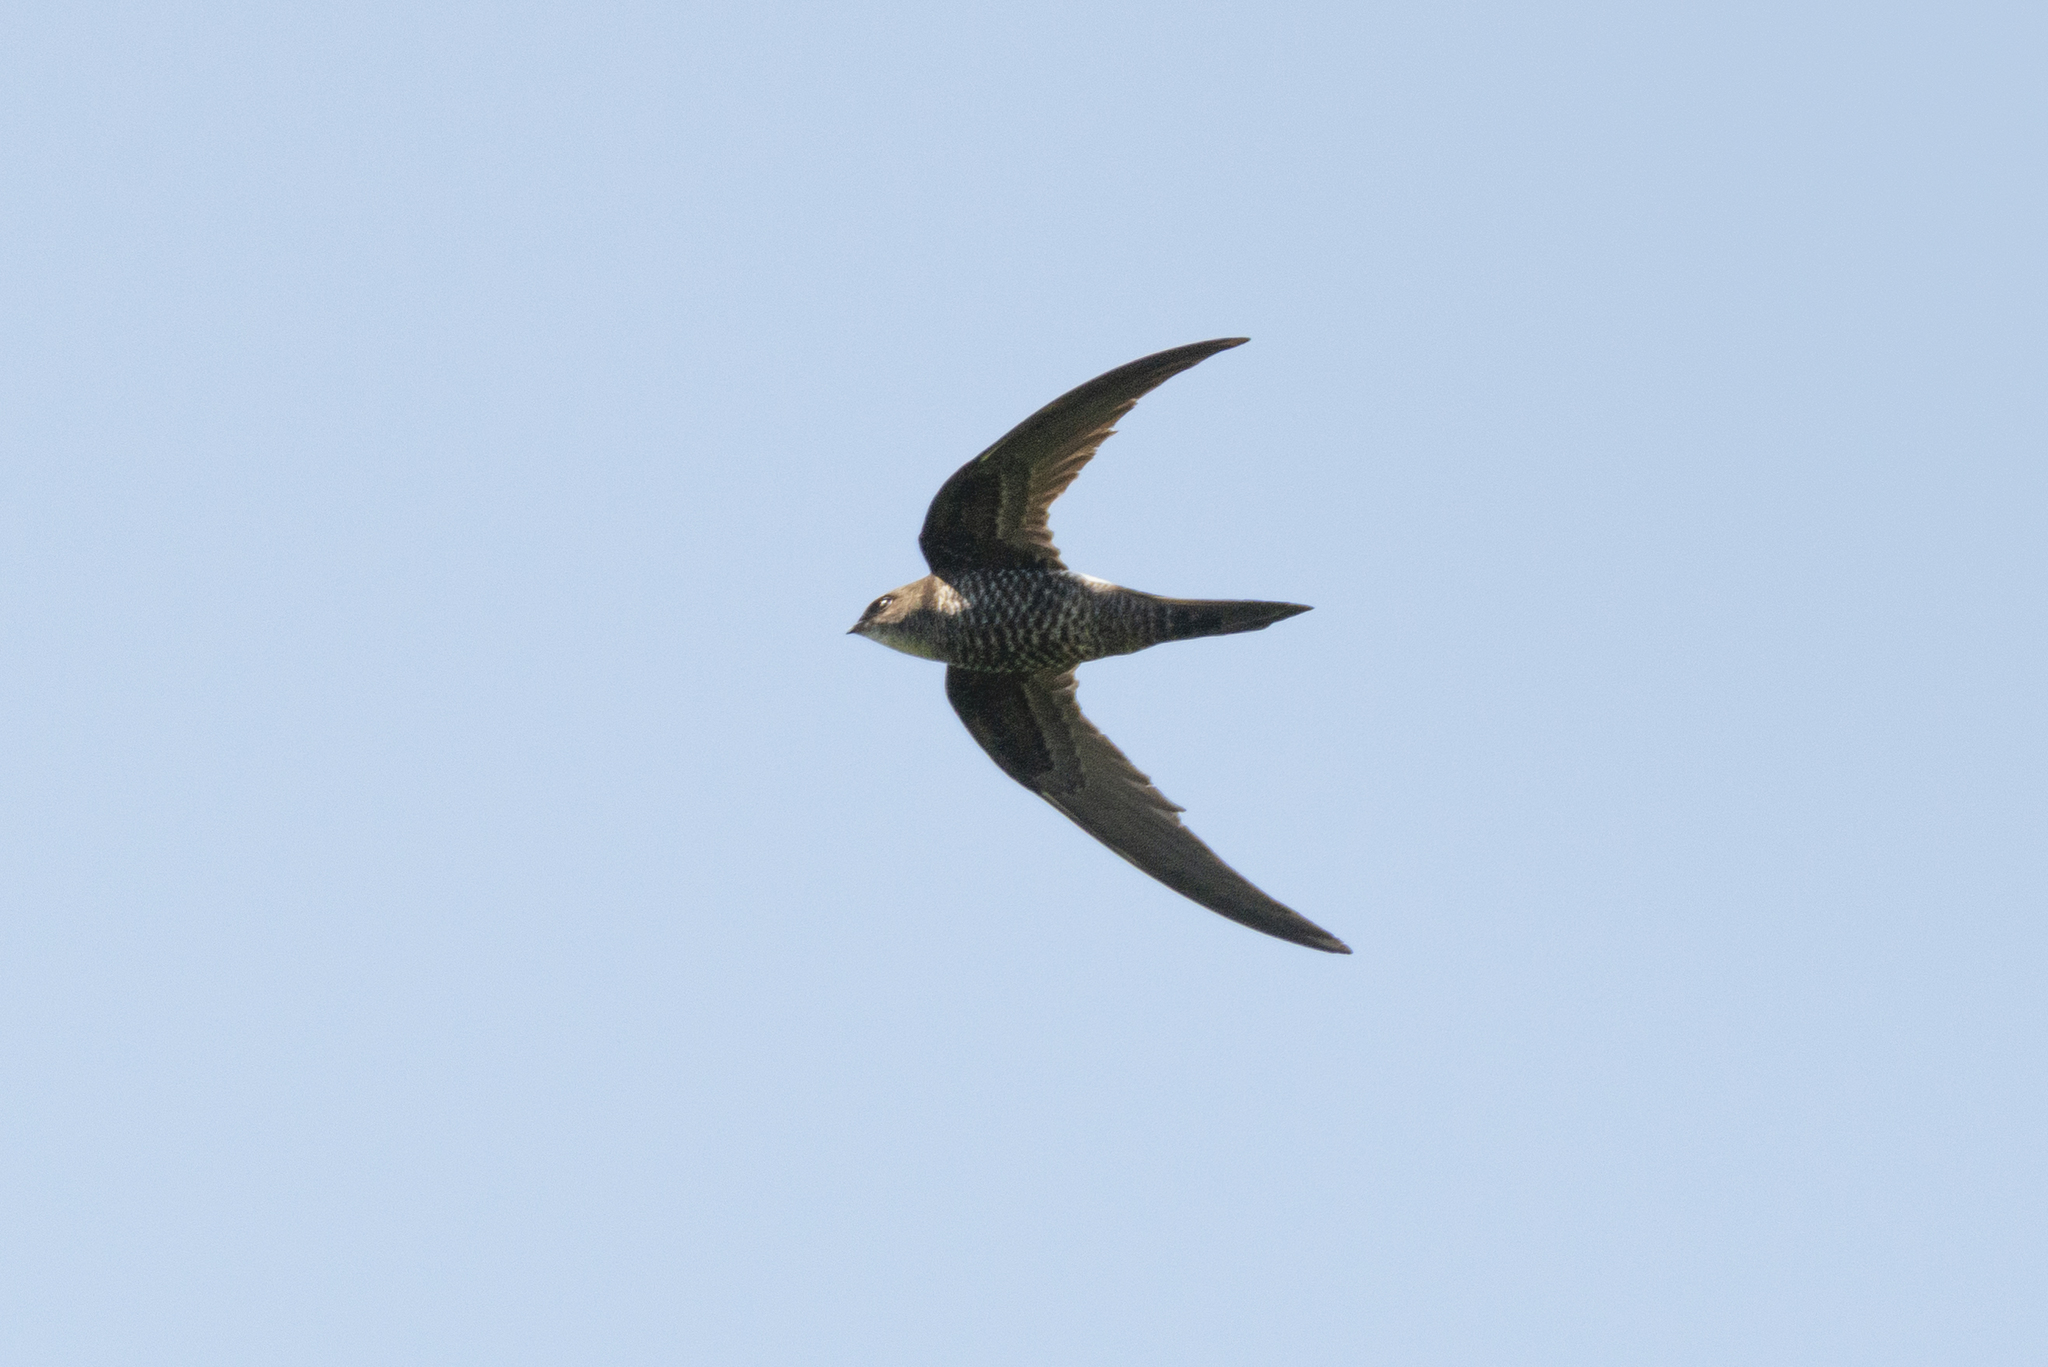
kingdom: Animalia
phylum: Chordata
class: Aves
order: Apodiformes
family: Apodidae
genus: Apus
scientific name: Apus pacificus
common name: Pacific swift
